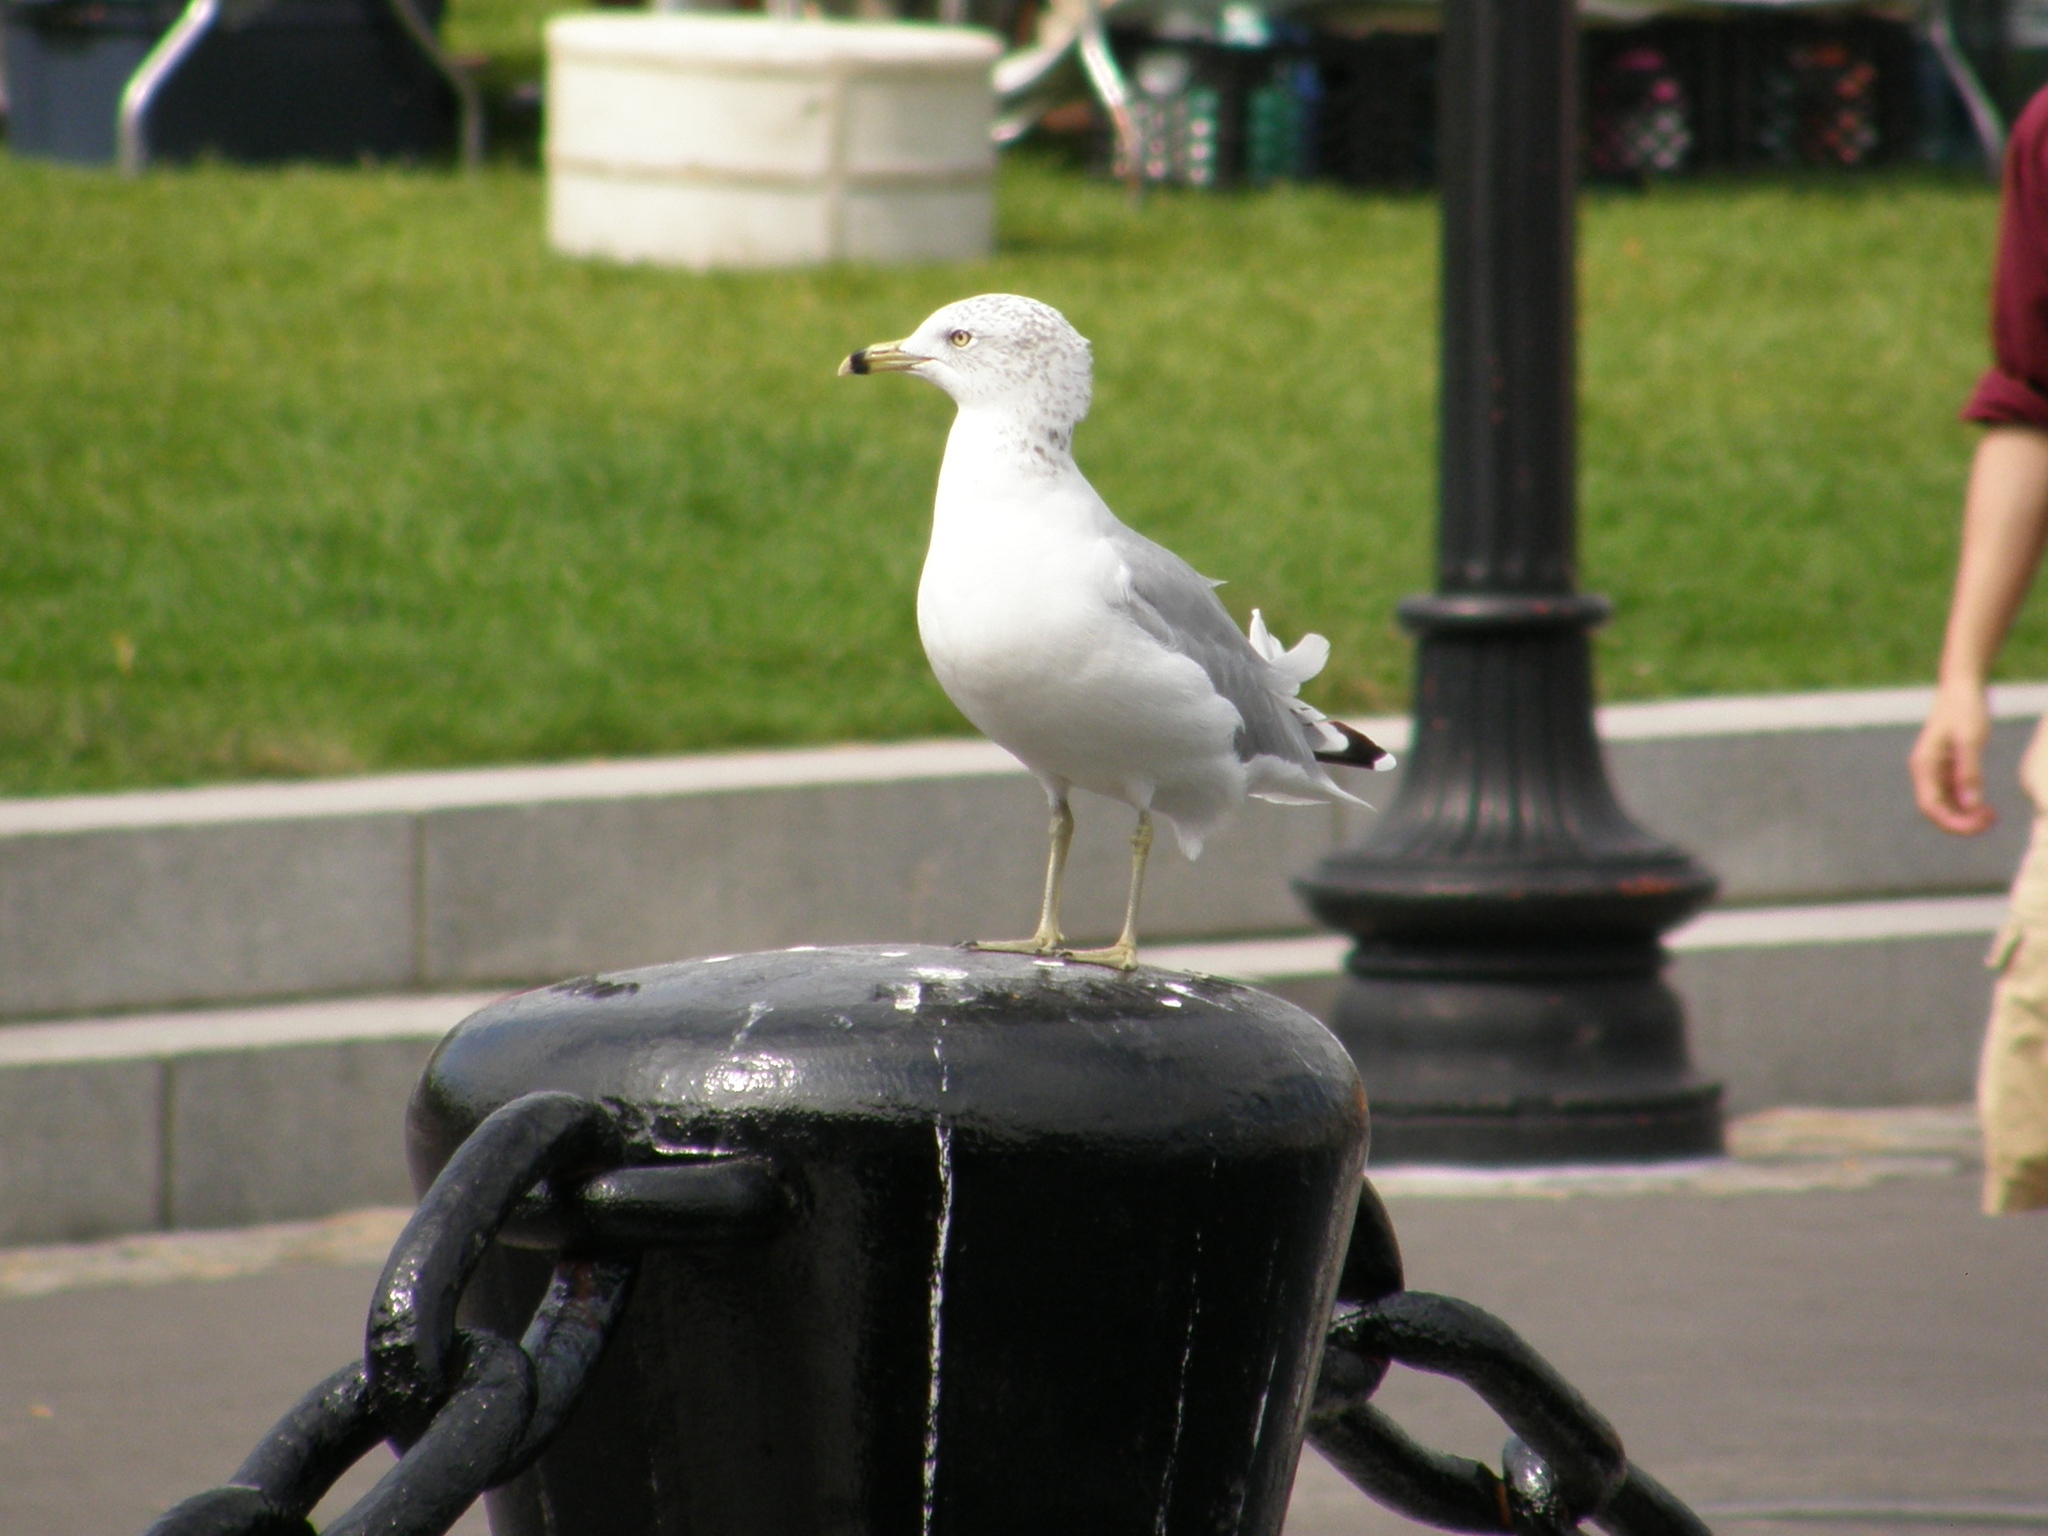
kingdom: Animalia
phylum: Chordata
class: Aves
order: Charadriiformes
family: Laridae
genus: Larus
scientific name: Larus delawarensis
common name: Ring-billed gull
